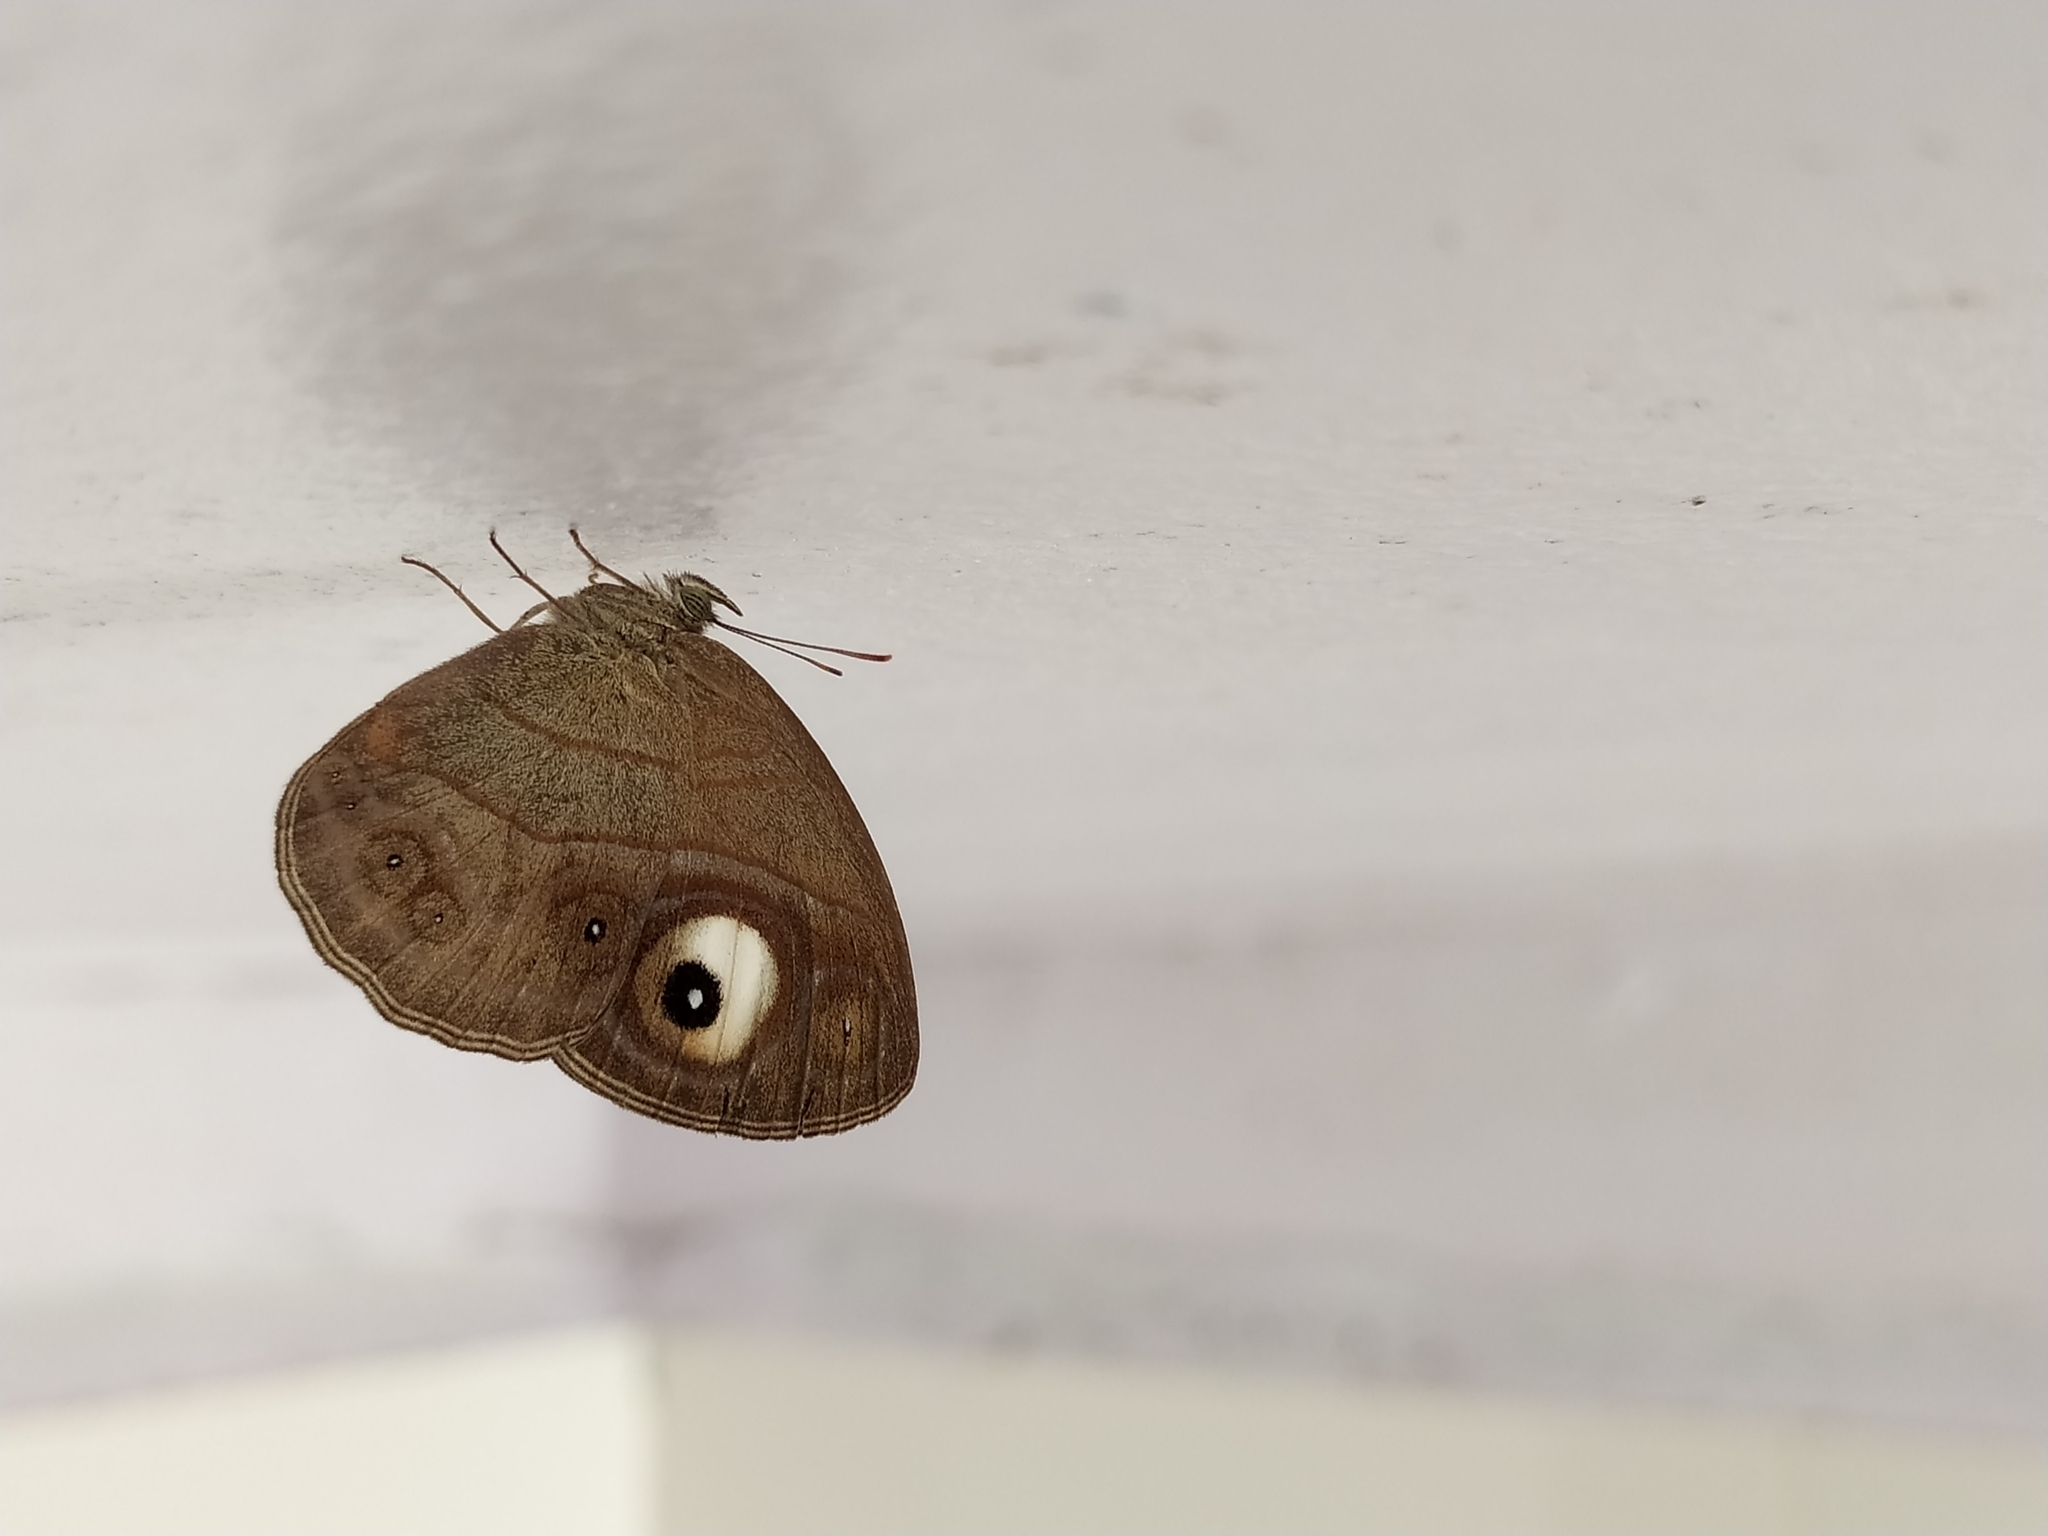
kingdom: Animalia
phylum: Arthropoda
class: Insecta
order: Lepidoptera
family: Nymphalidae
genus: Mycalesis
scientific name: Mycalesis patnia
